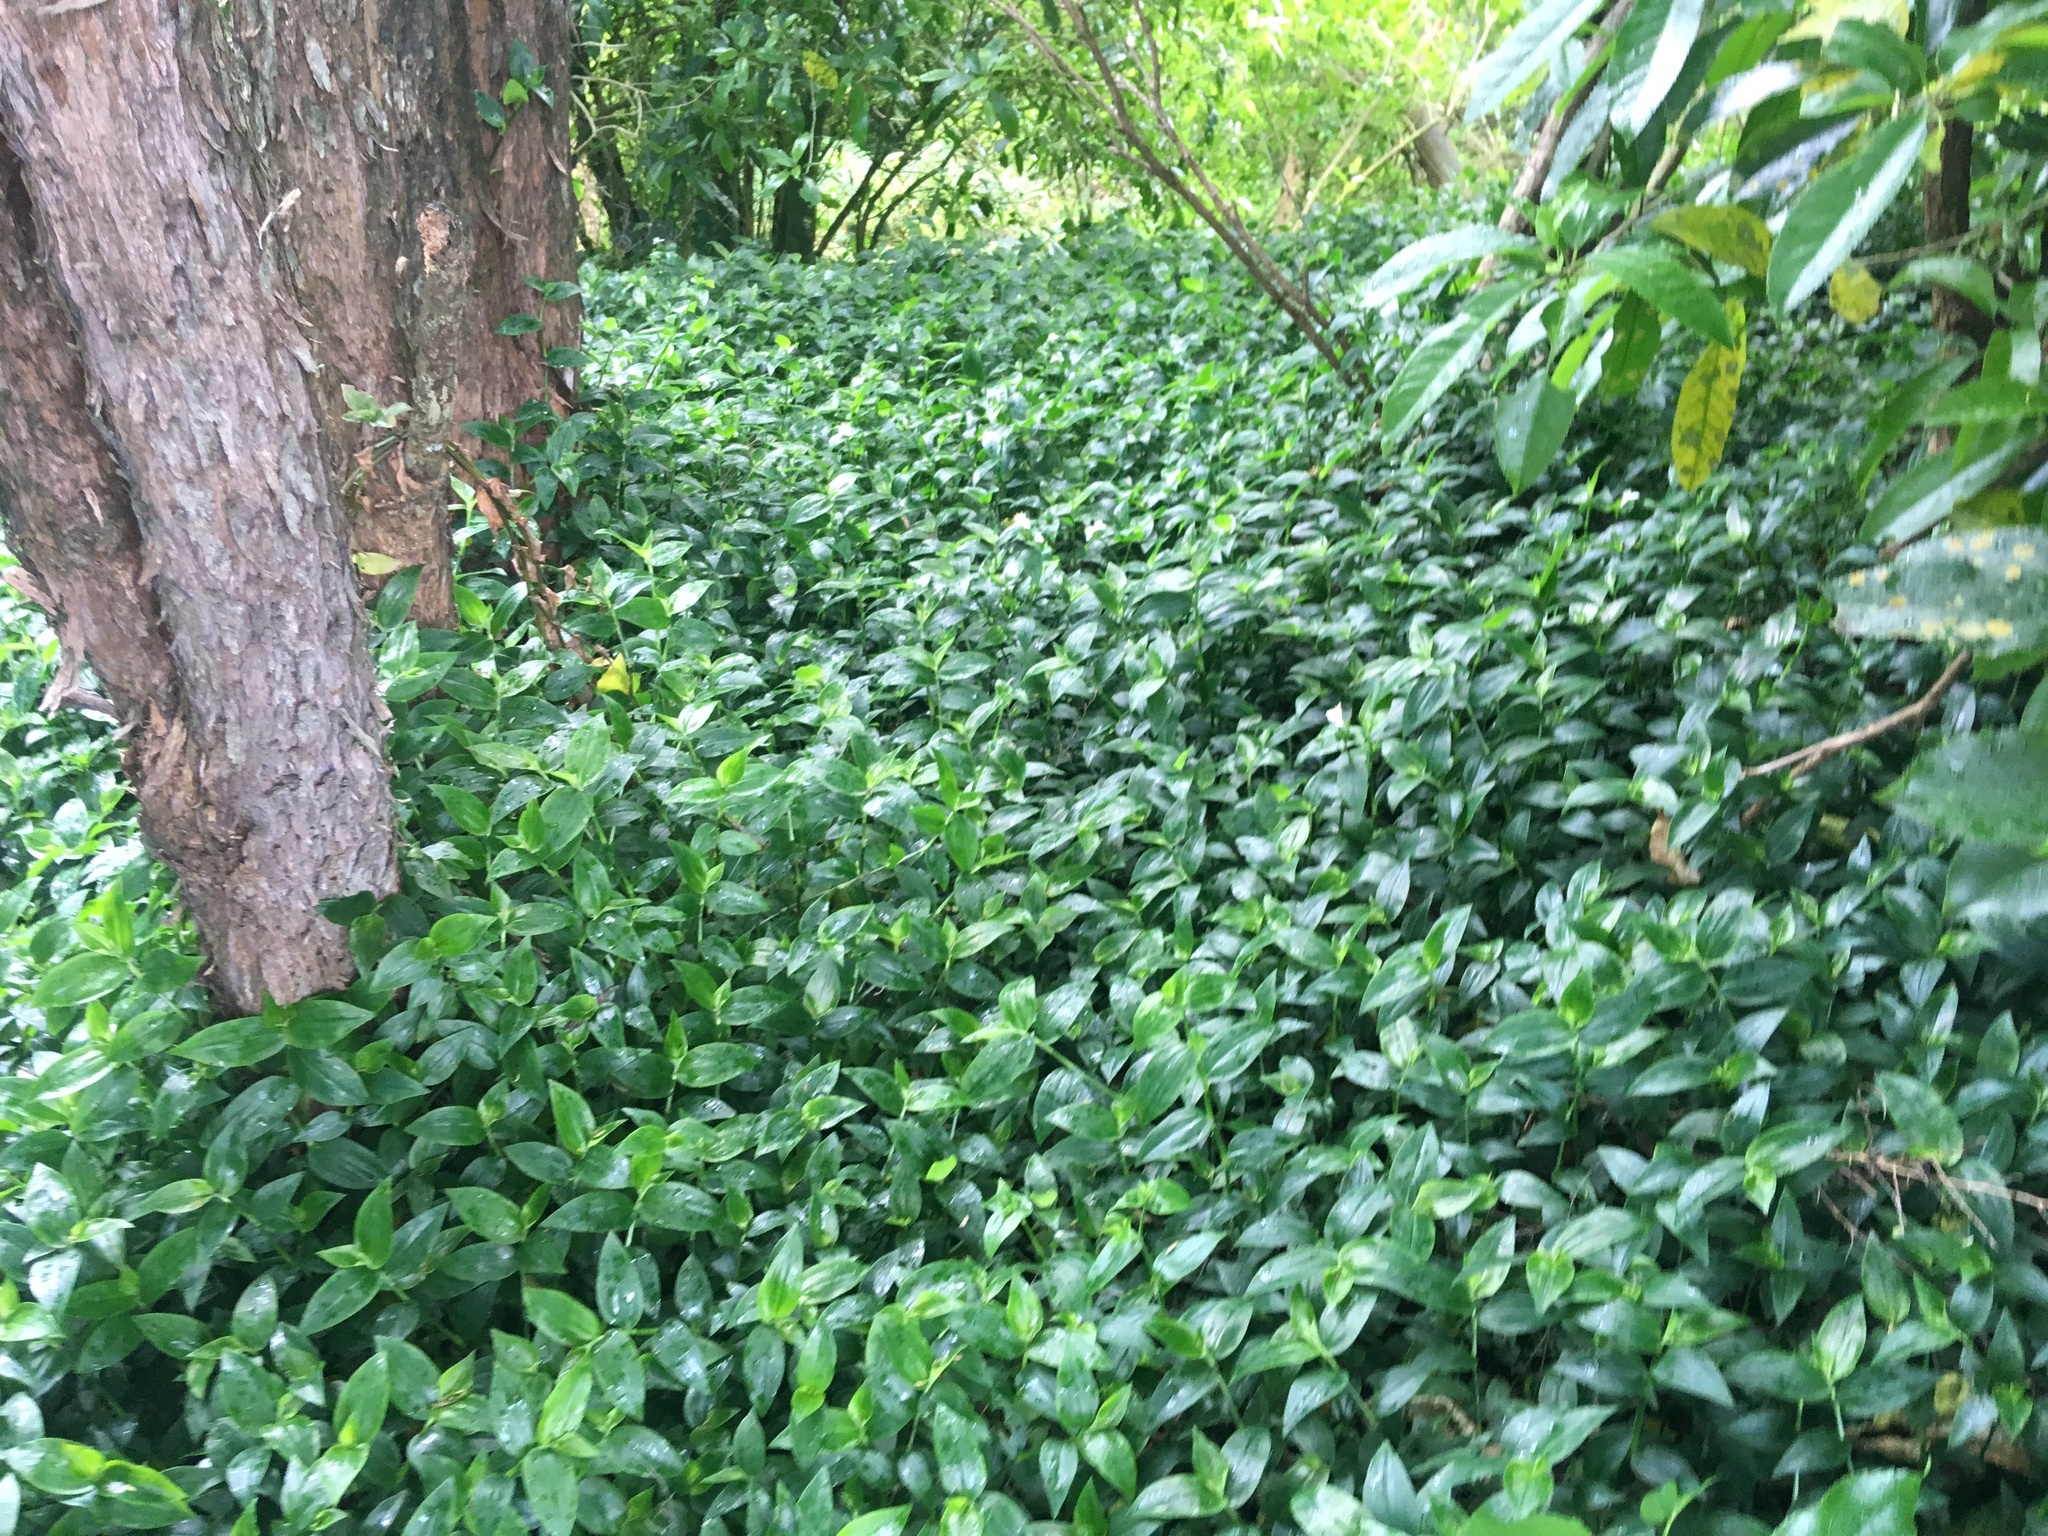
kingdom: Plantae
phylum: Tracheophyta
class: Liliopsida
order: Commelinales
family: Commelinaceae
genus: Tradescantia
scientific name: Tradescantia fluminensis
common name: Wandering-jew
